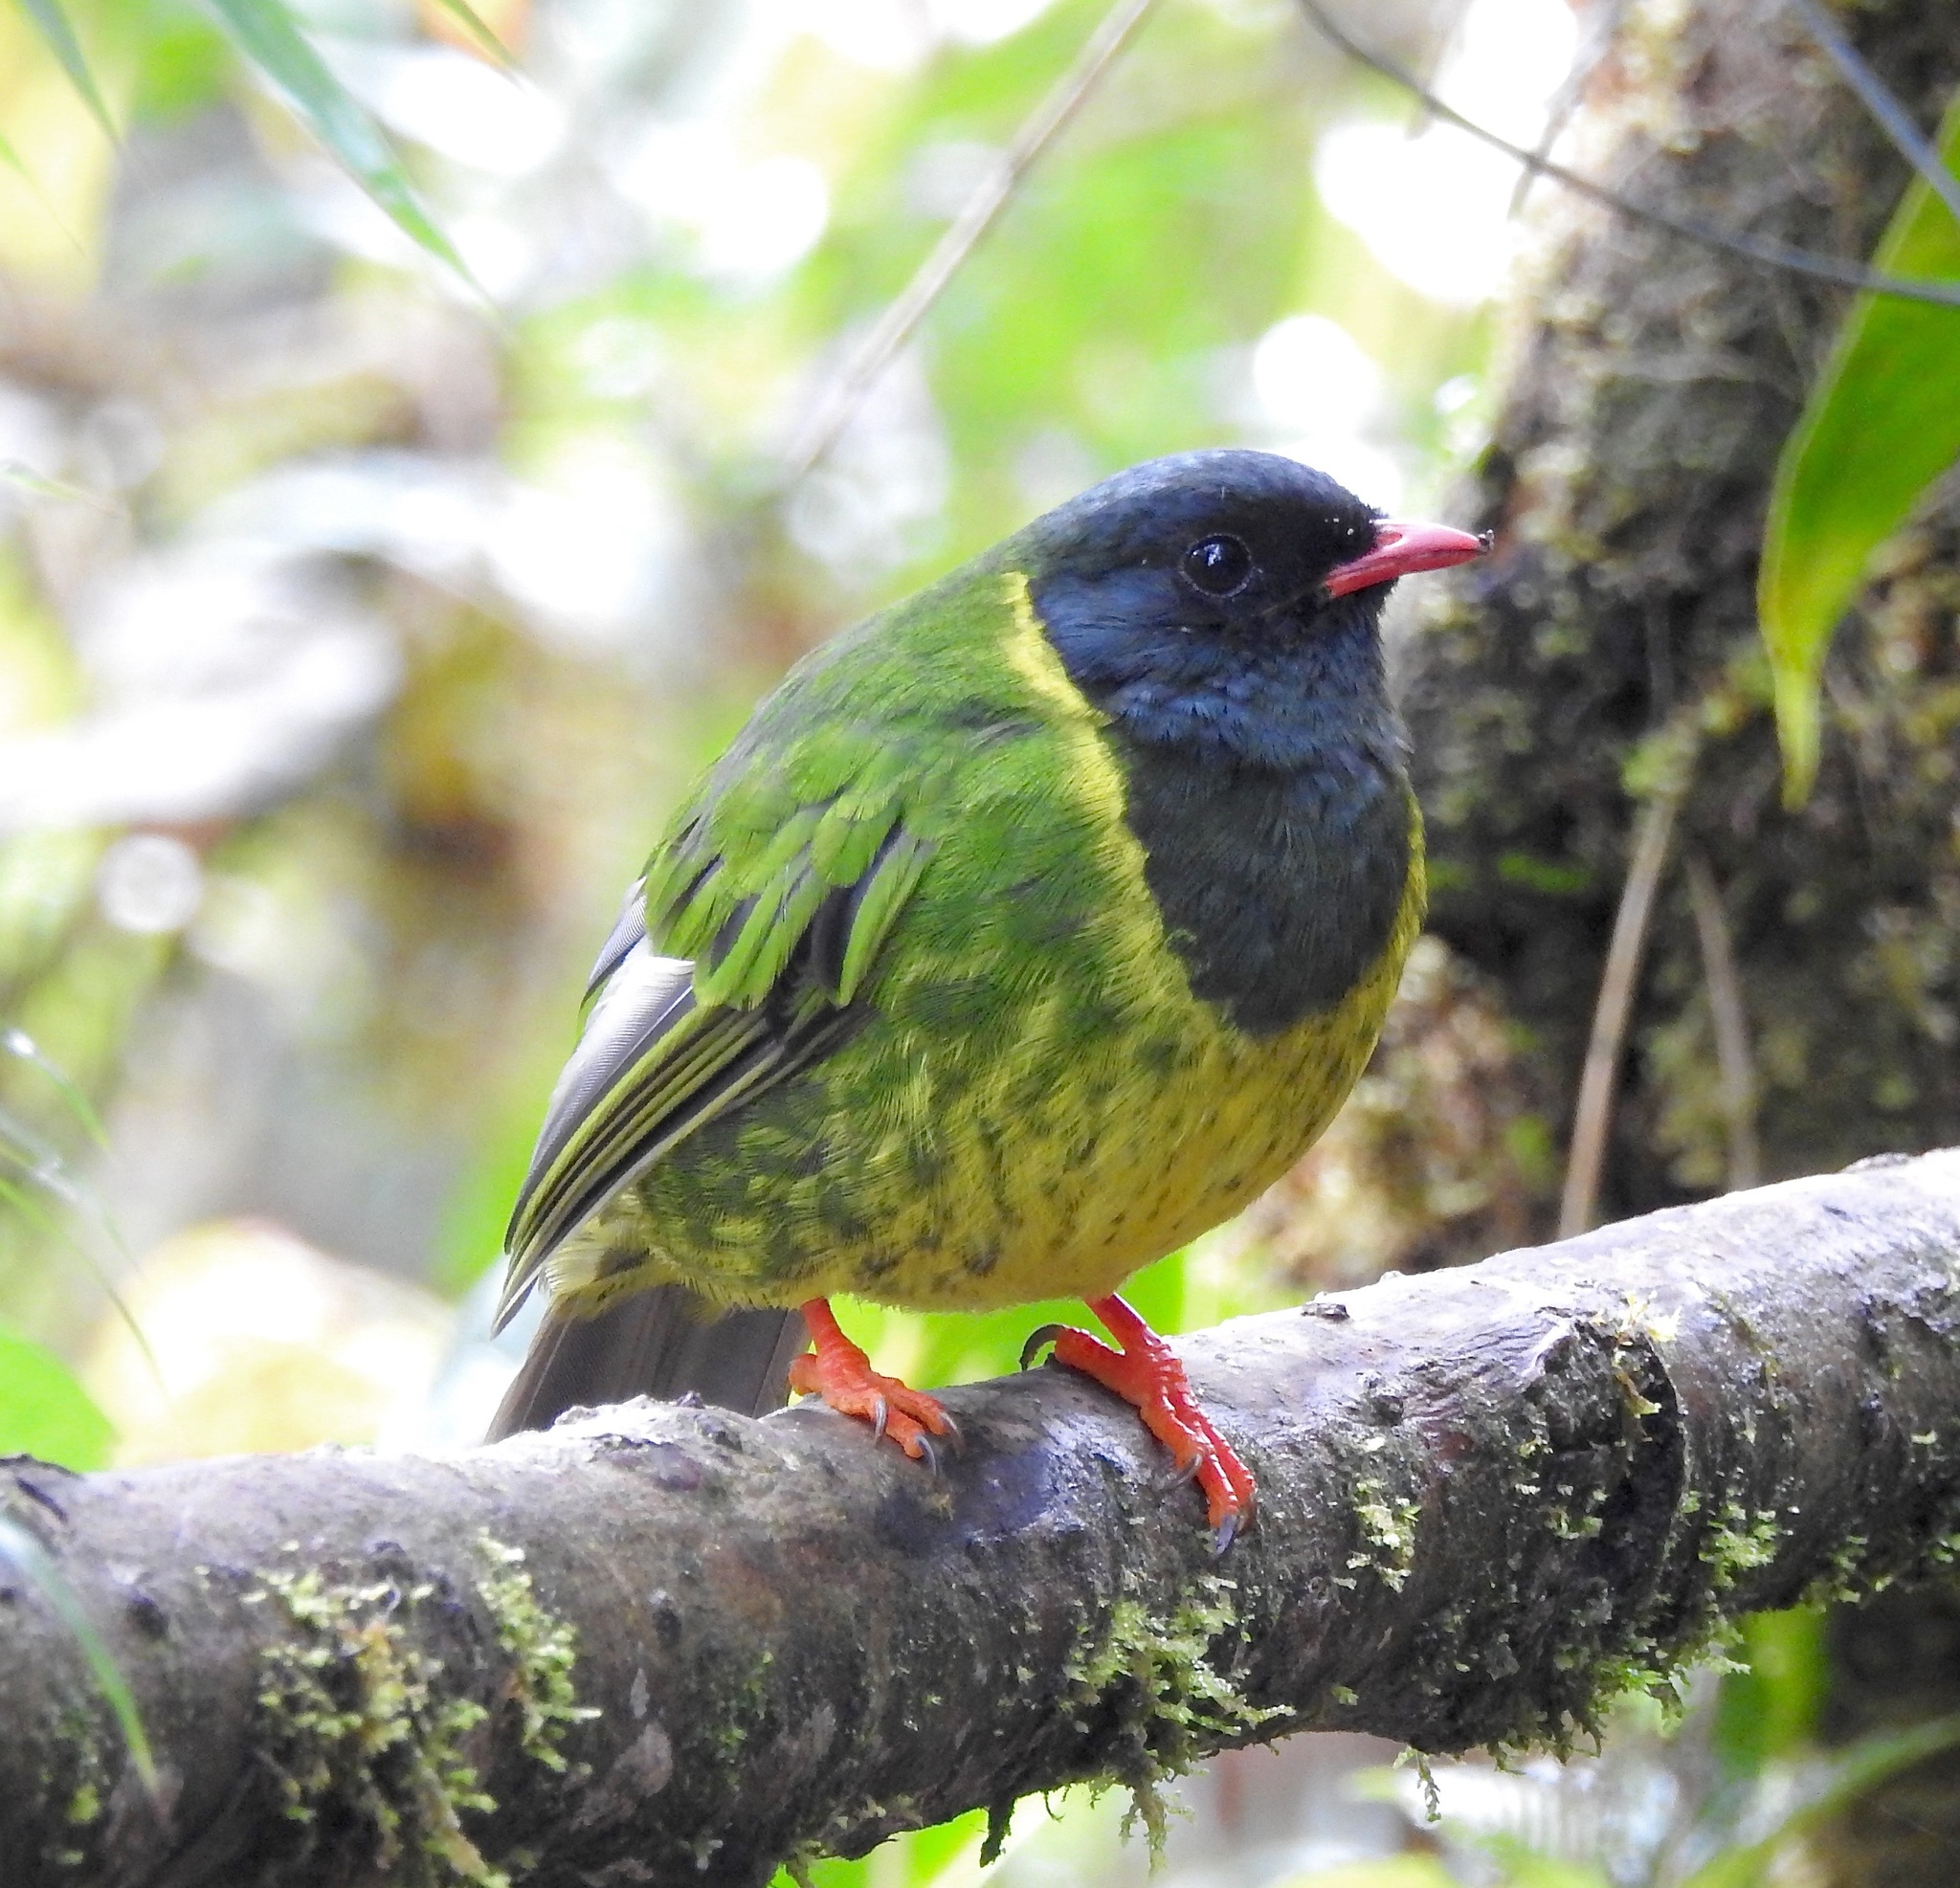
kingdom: Animalia
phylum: Chordata
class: Aves
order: Passeriformes
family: Cotingidae
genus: Pipreola
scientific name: Pipreola riefferii
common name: Green-and-black fruiteater
